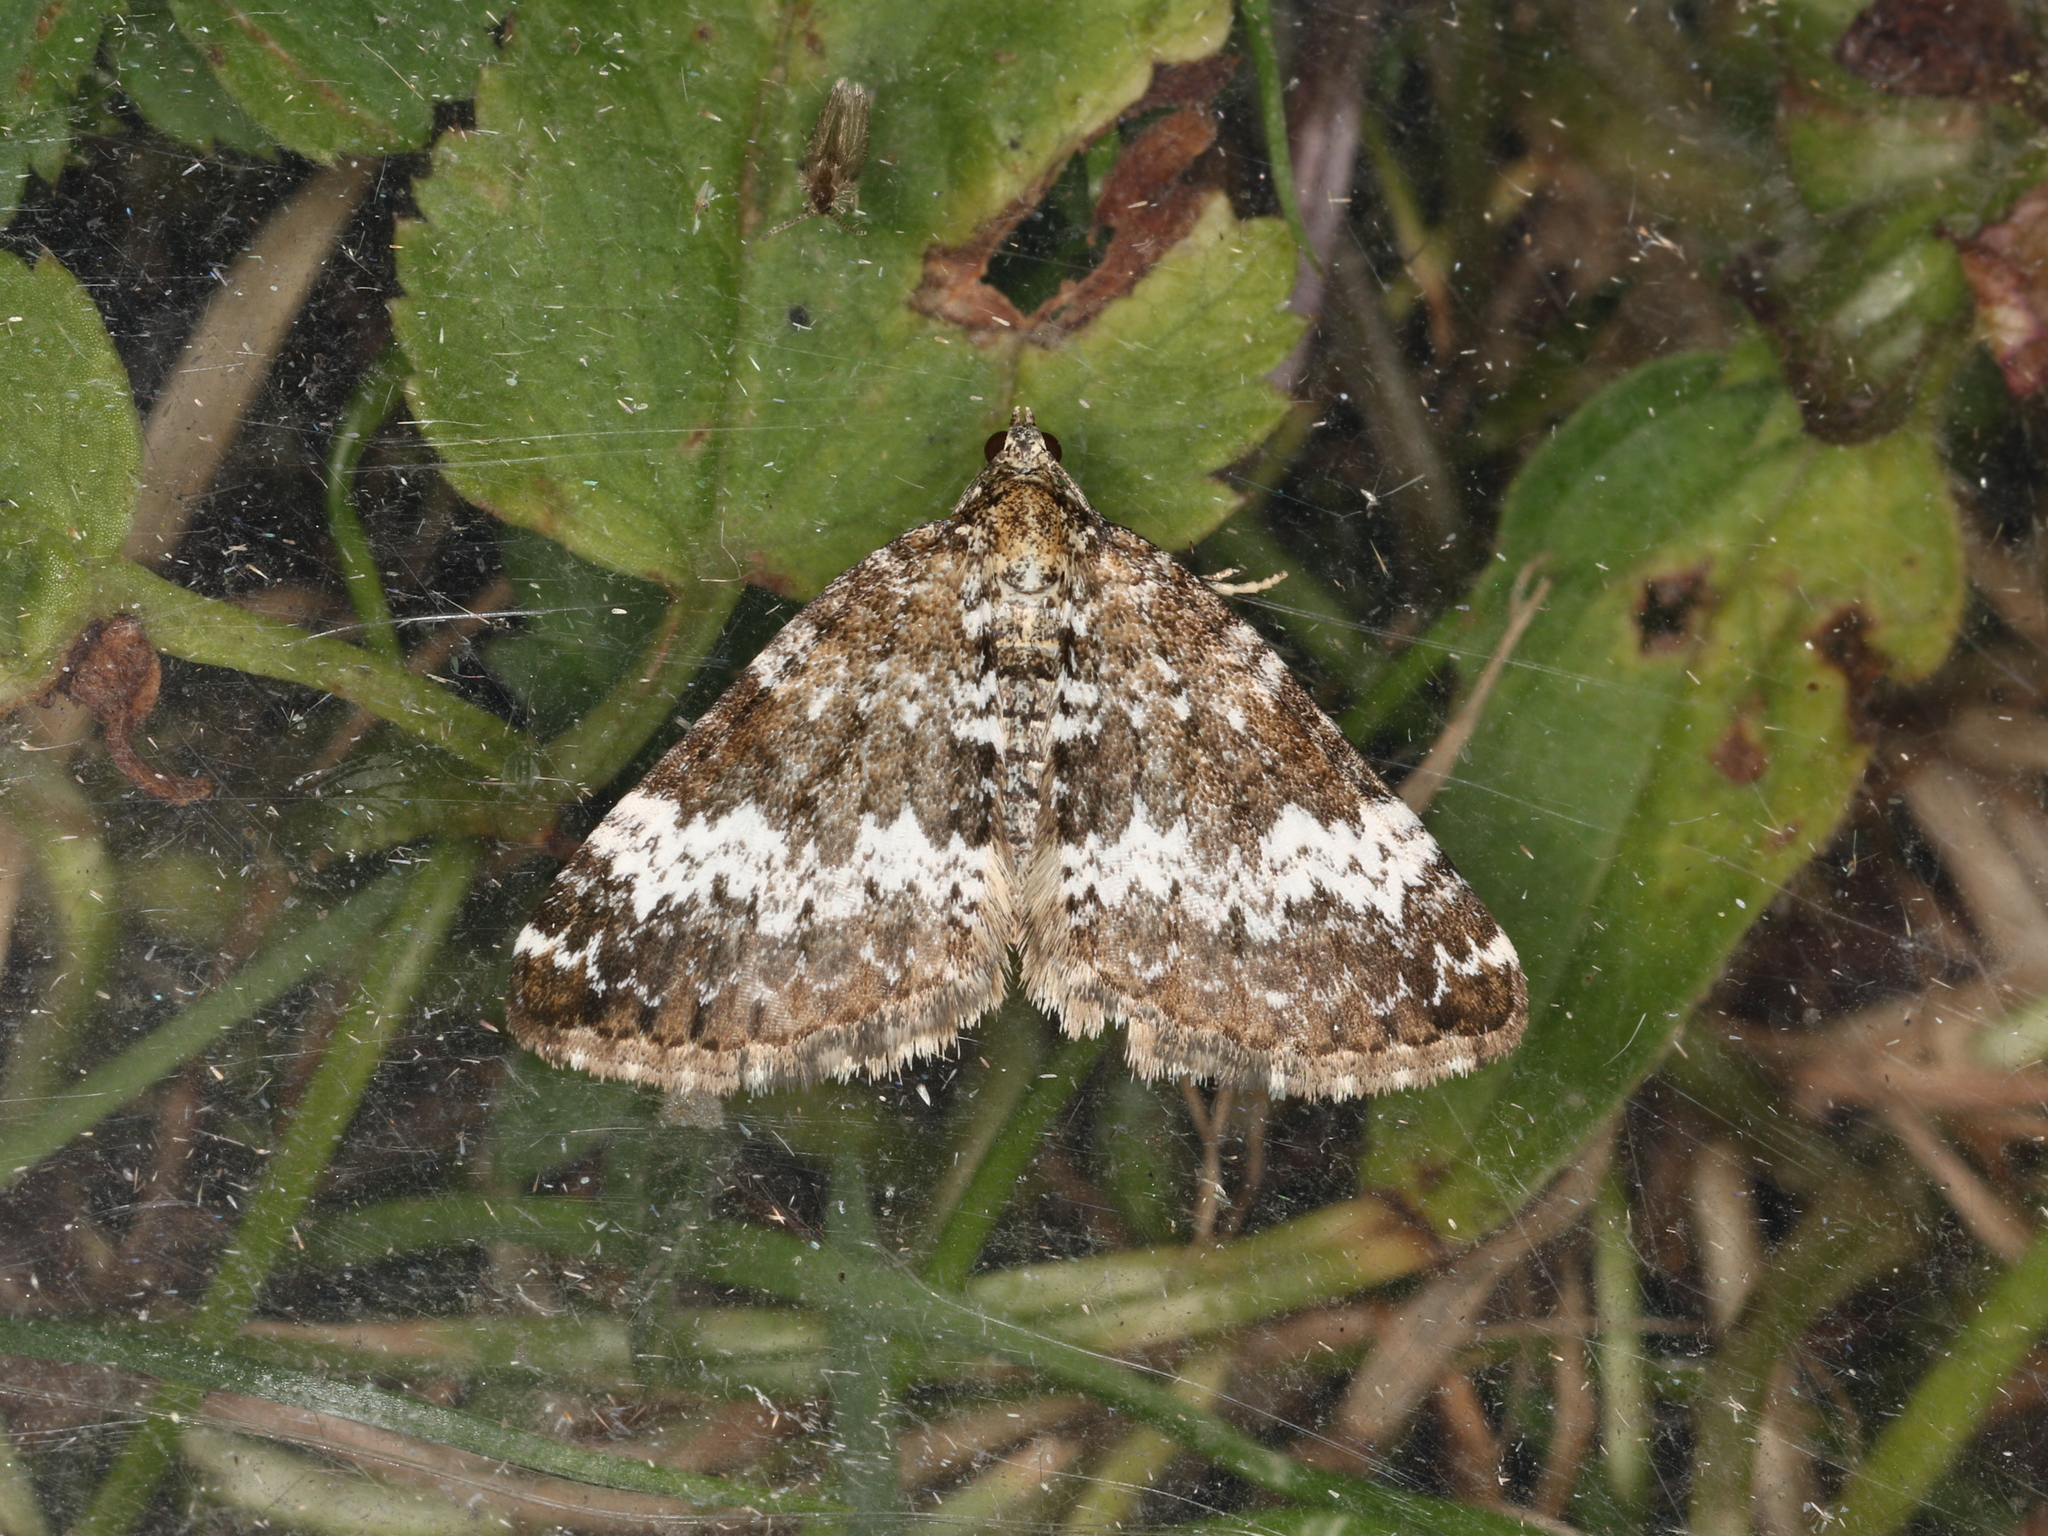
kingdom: Animalia
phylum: Arthropoda
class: Insecta
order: Lepidoptera
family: Geometridae
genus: Perizoma
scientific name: Perizoma alchemillata
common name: Small rivulet
